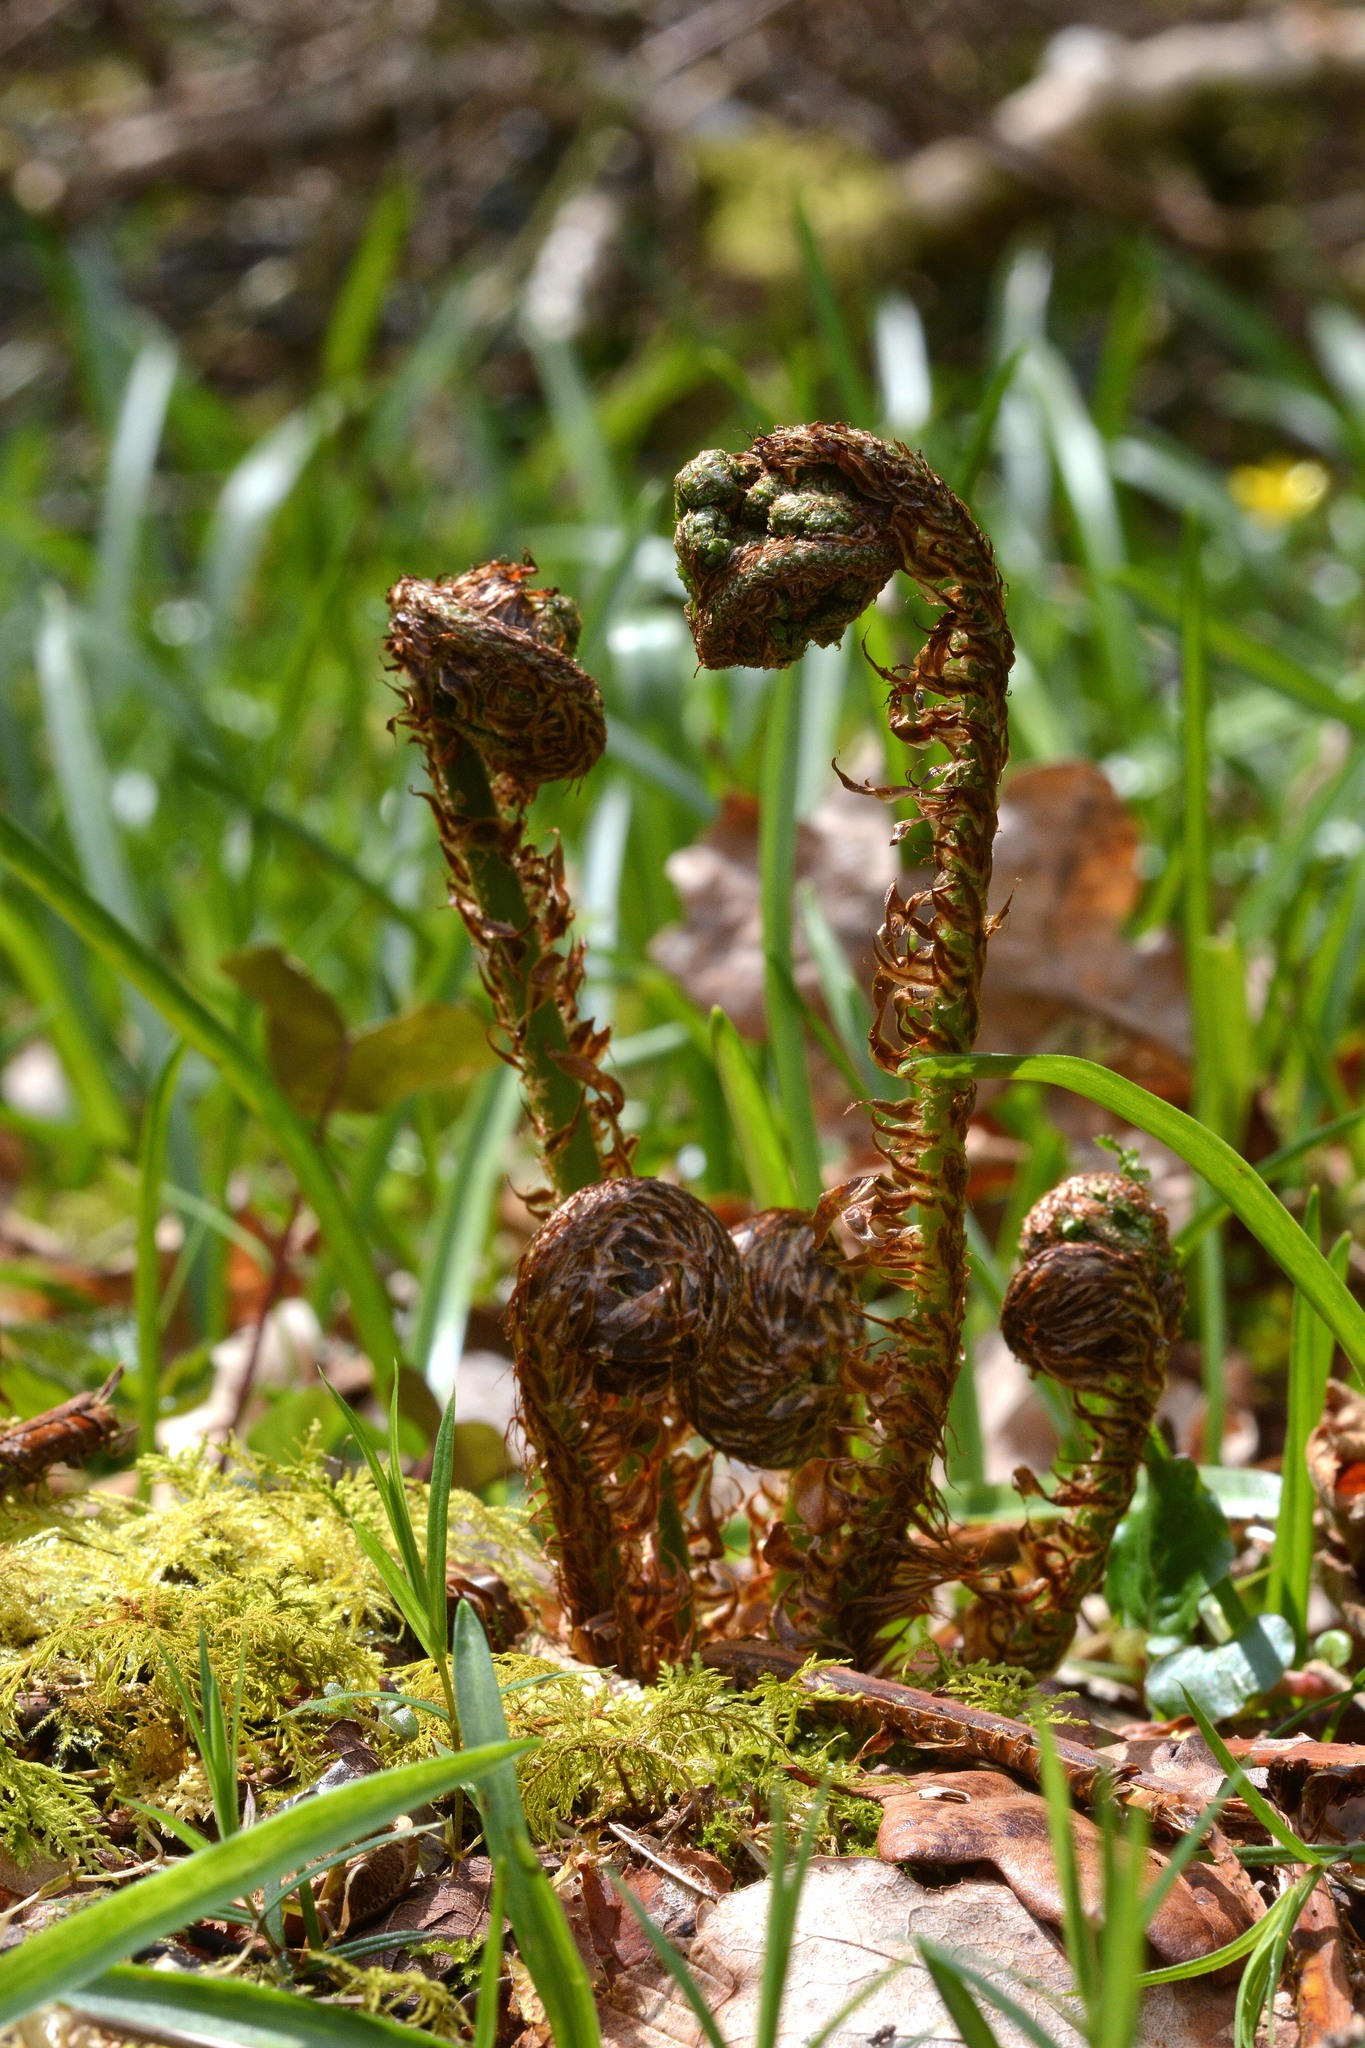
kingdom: Plantae
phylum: Tracheophyta
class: Polypodiopsida
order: Polypodiales
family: Dryopteridaceae
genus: Dryopteris
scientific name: Dryopteris dilatata
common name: Broad buckler-fern
